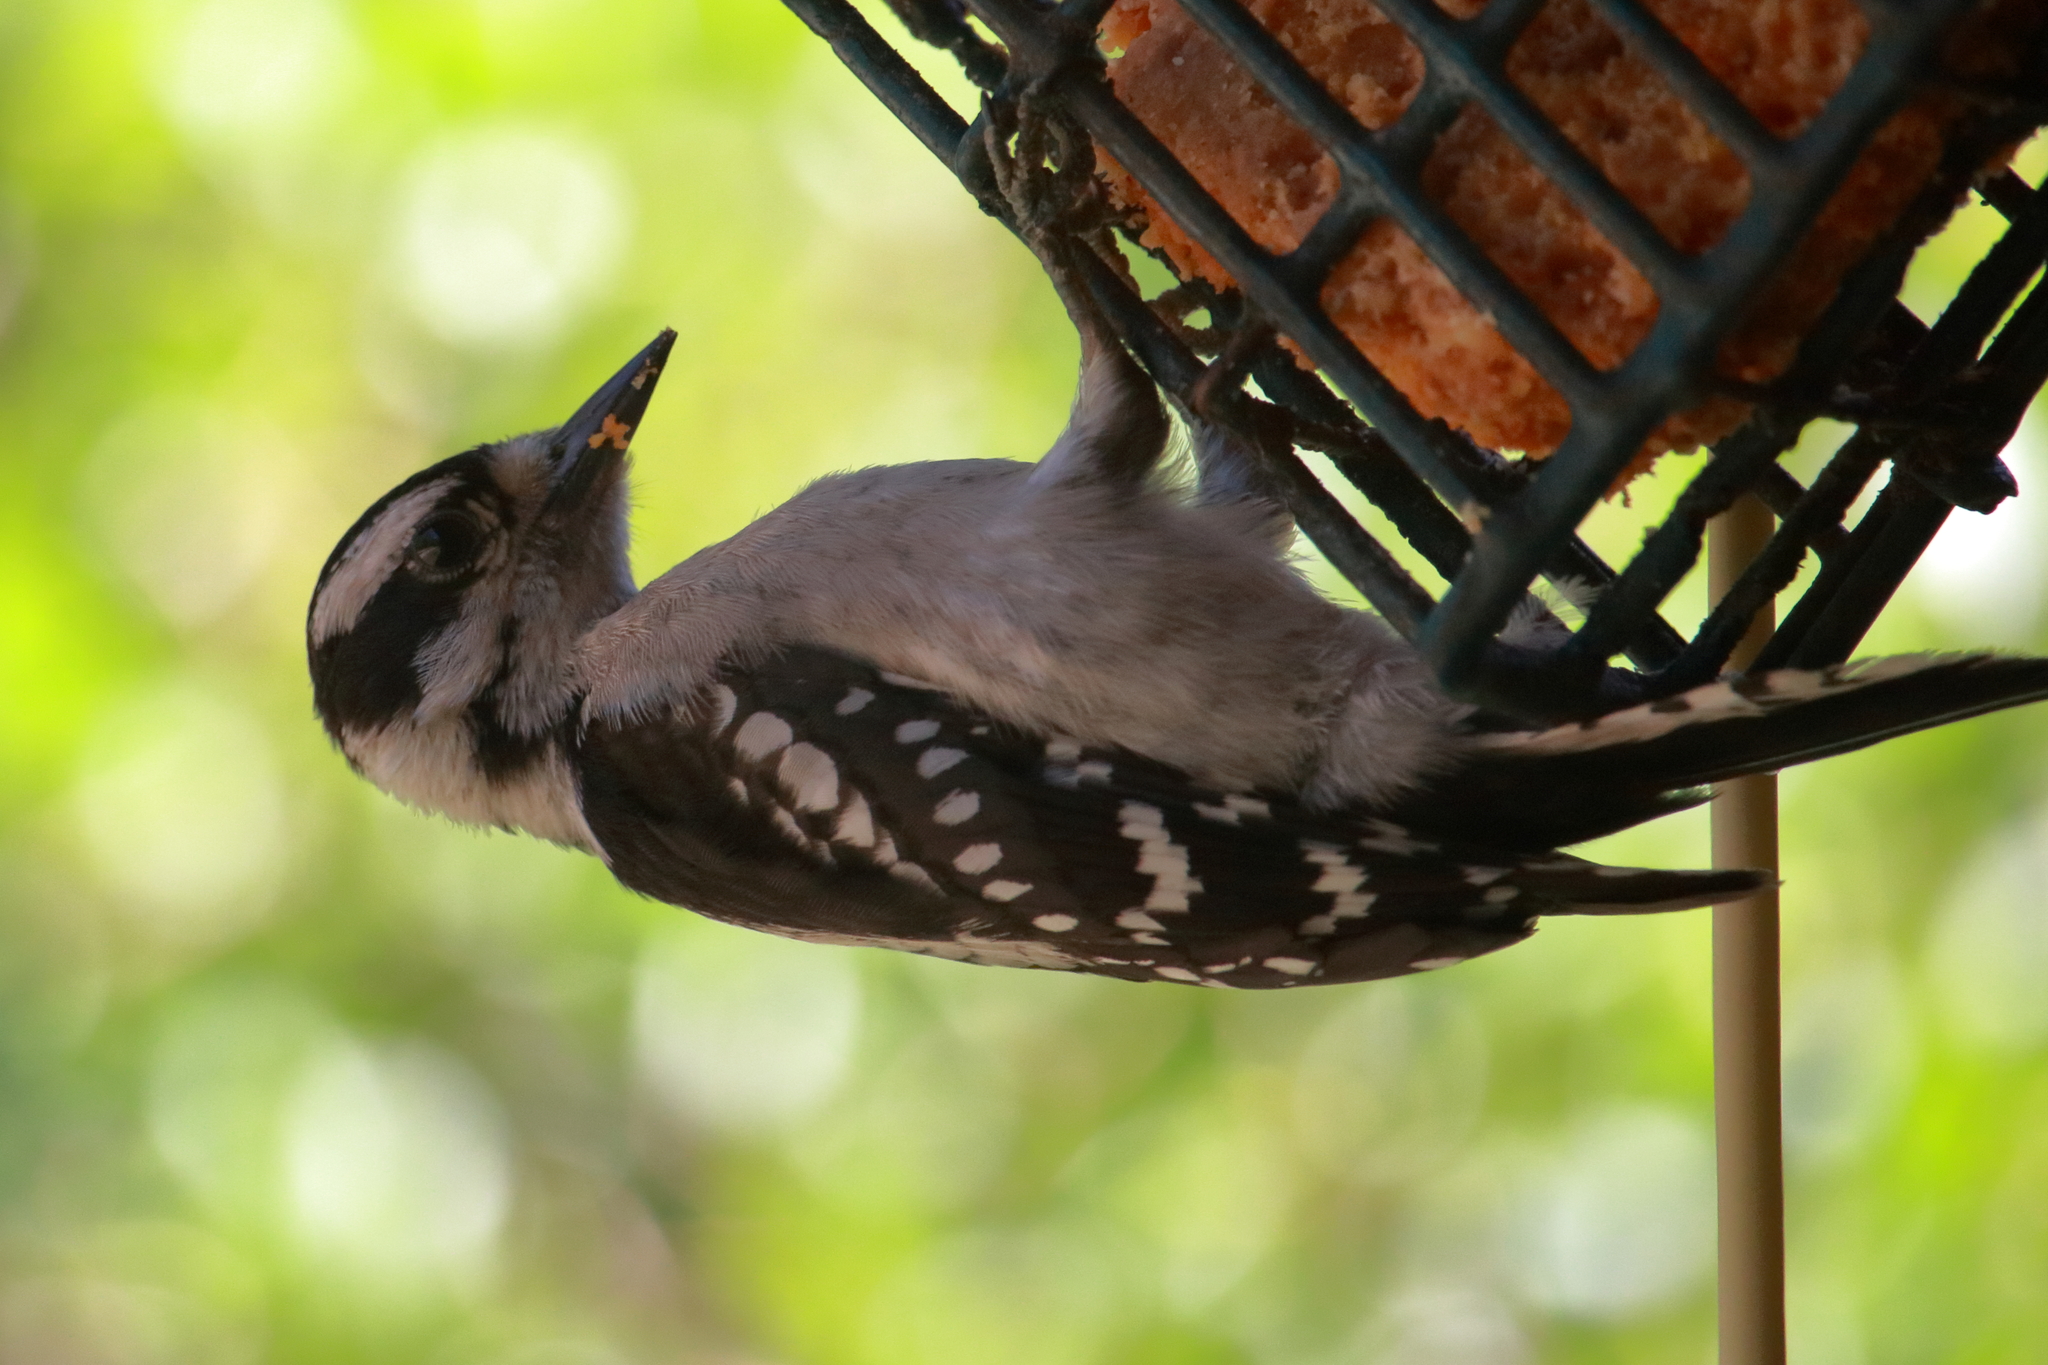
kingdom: Animalia
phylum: Chordata
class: Aves
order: Piciformes
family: Picidae
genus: Dryobates
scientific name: Dryobates pubescens
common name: Downy woodpecker
